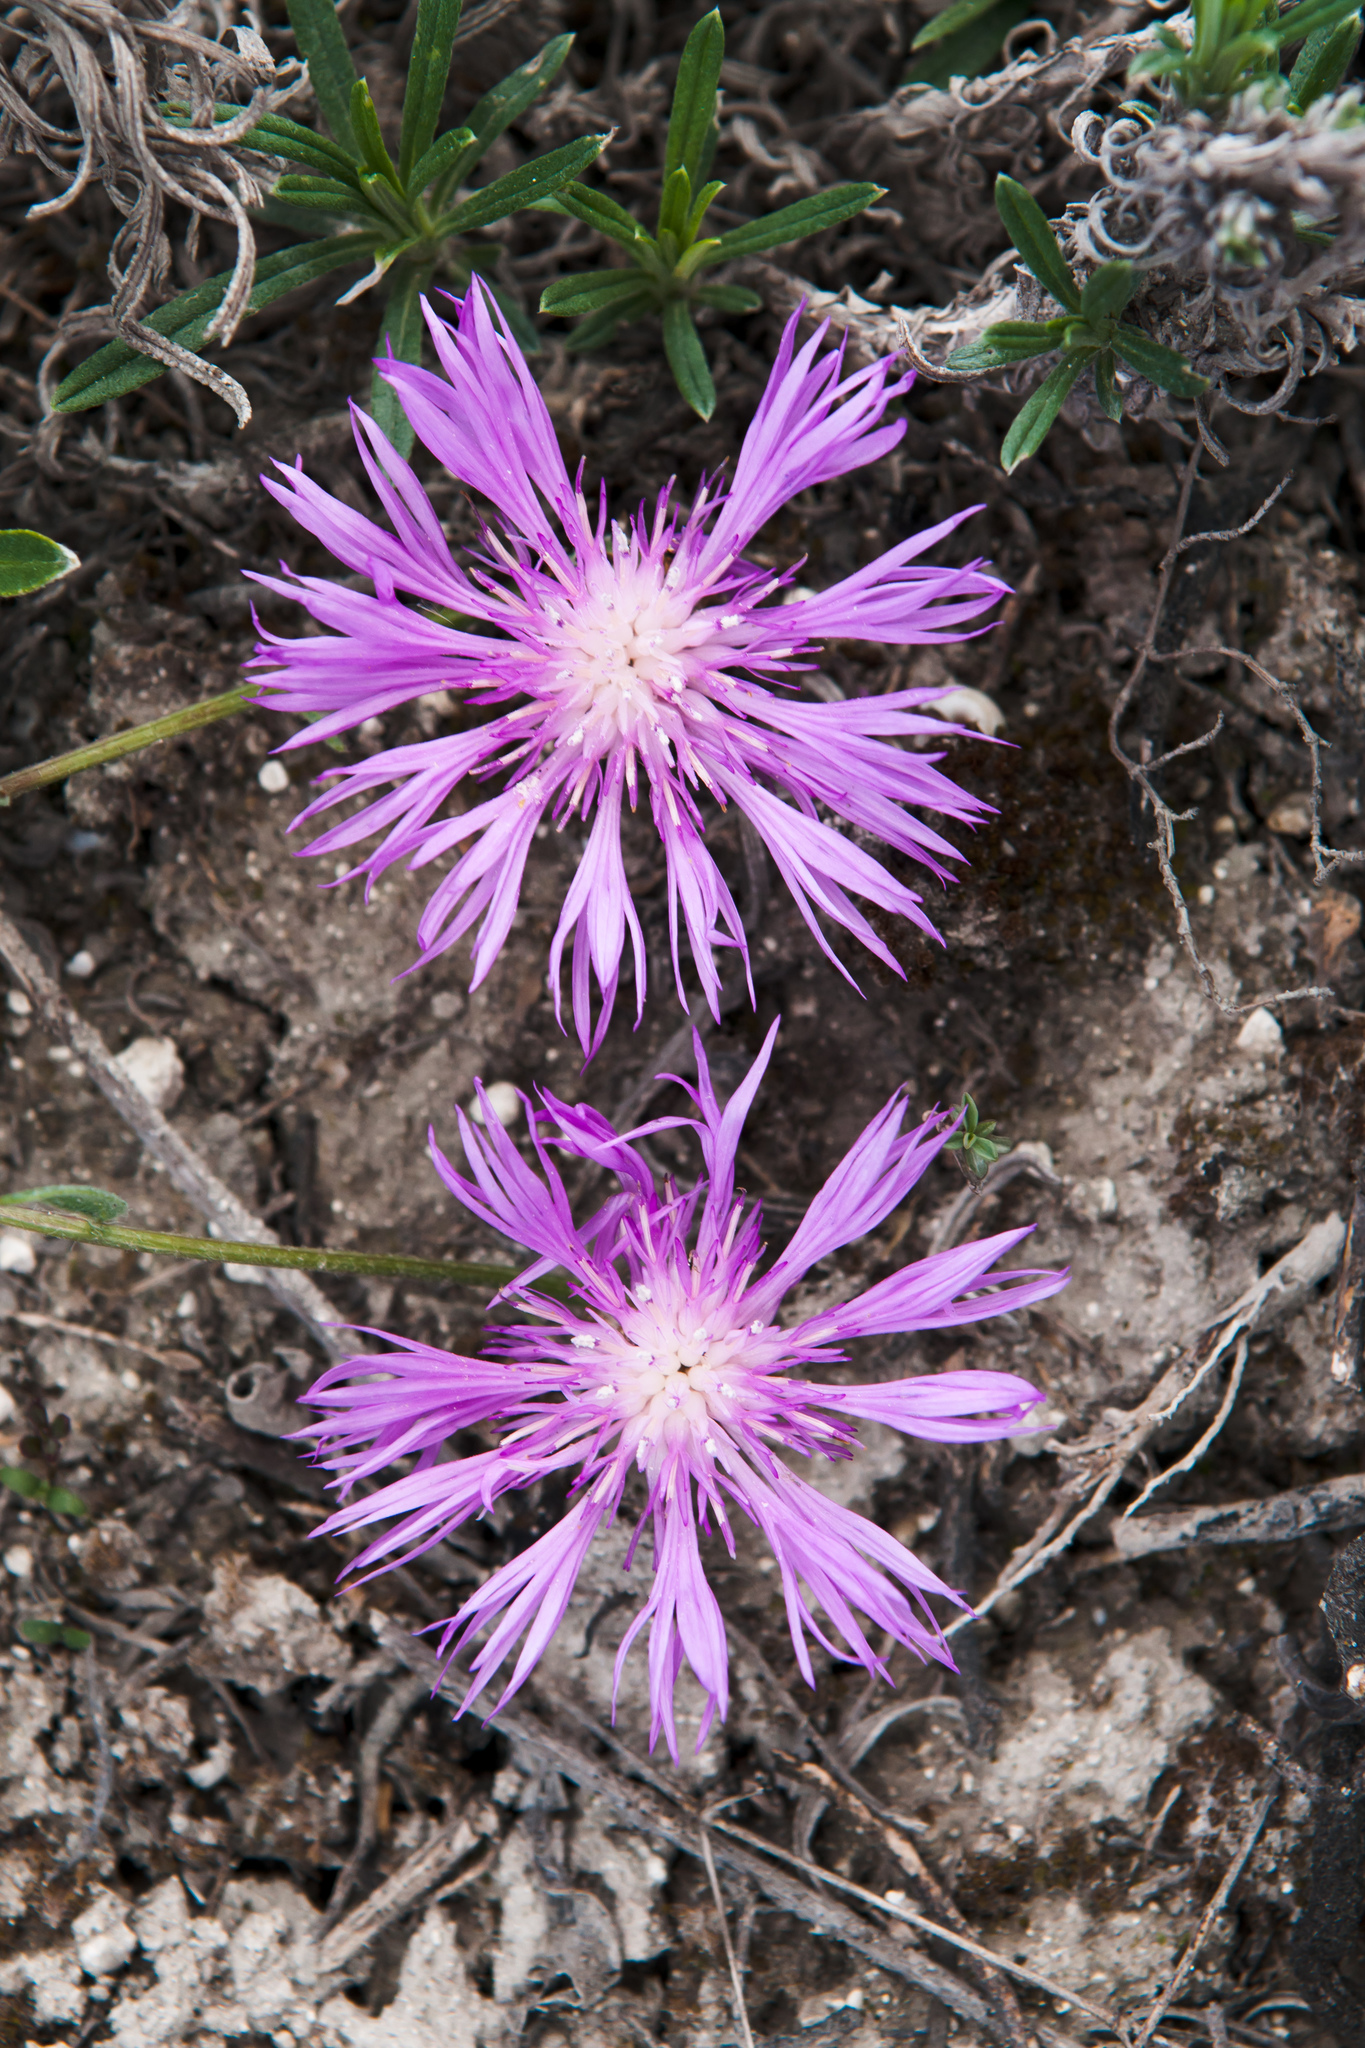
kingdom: Plantae
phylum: Tracheophyta
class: Magnoliopsida
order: Asterales
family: Asteraceae
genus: Psephellus
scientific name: Psephellus sumensis
